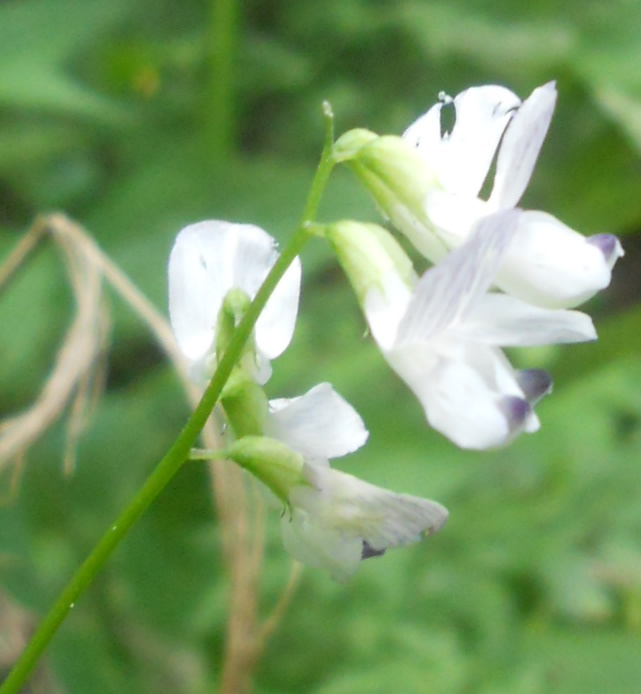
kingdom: Plantae
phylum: Tracheophyta
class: Magnoliopsida
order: Fabales
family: Fabaceae
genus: Vicia
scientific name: Vicia sylvatica
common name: Wood vetch
